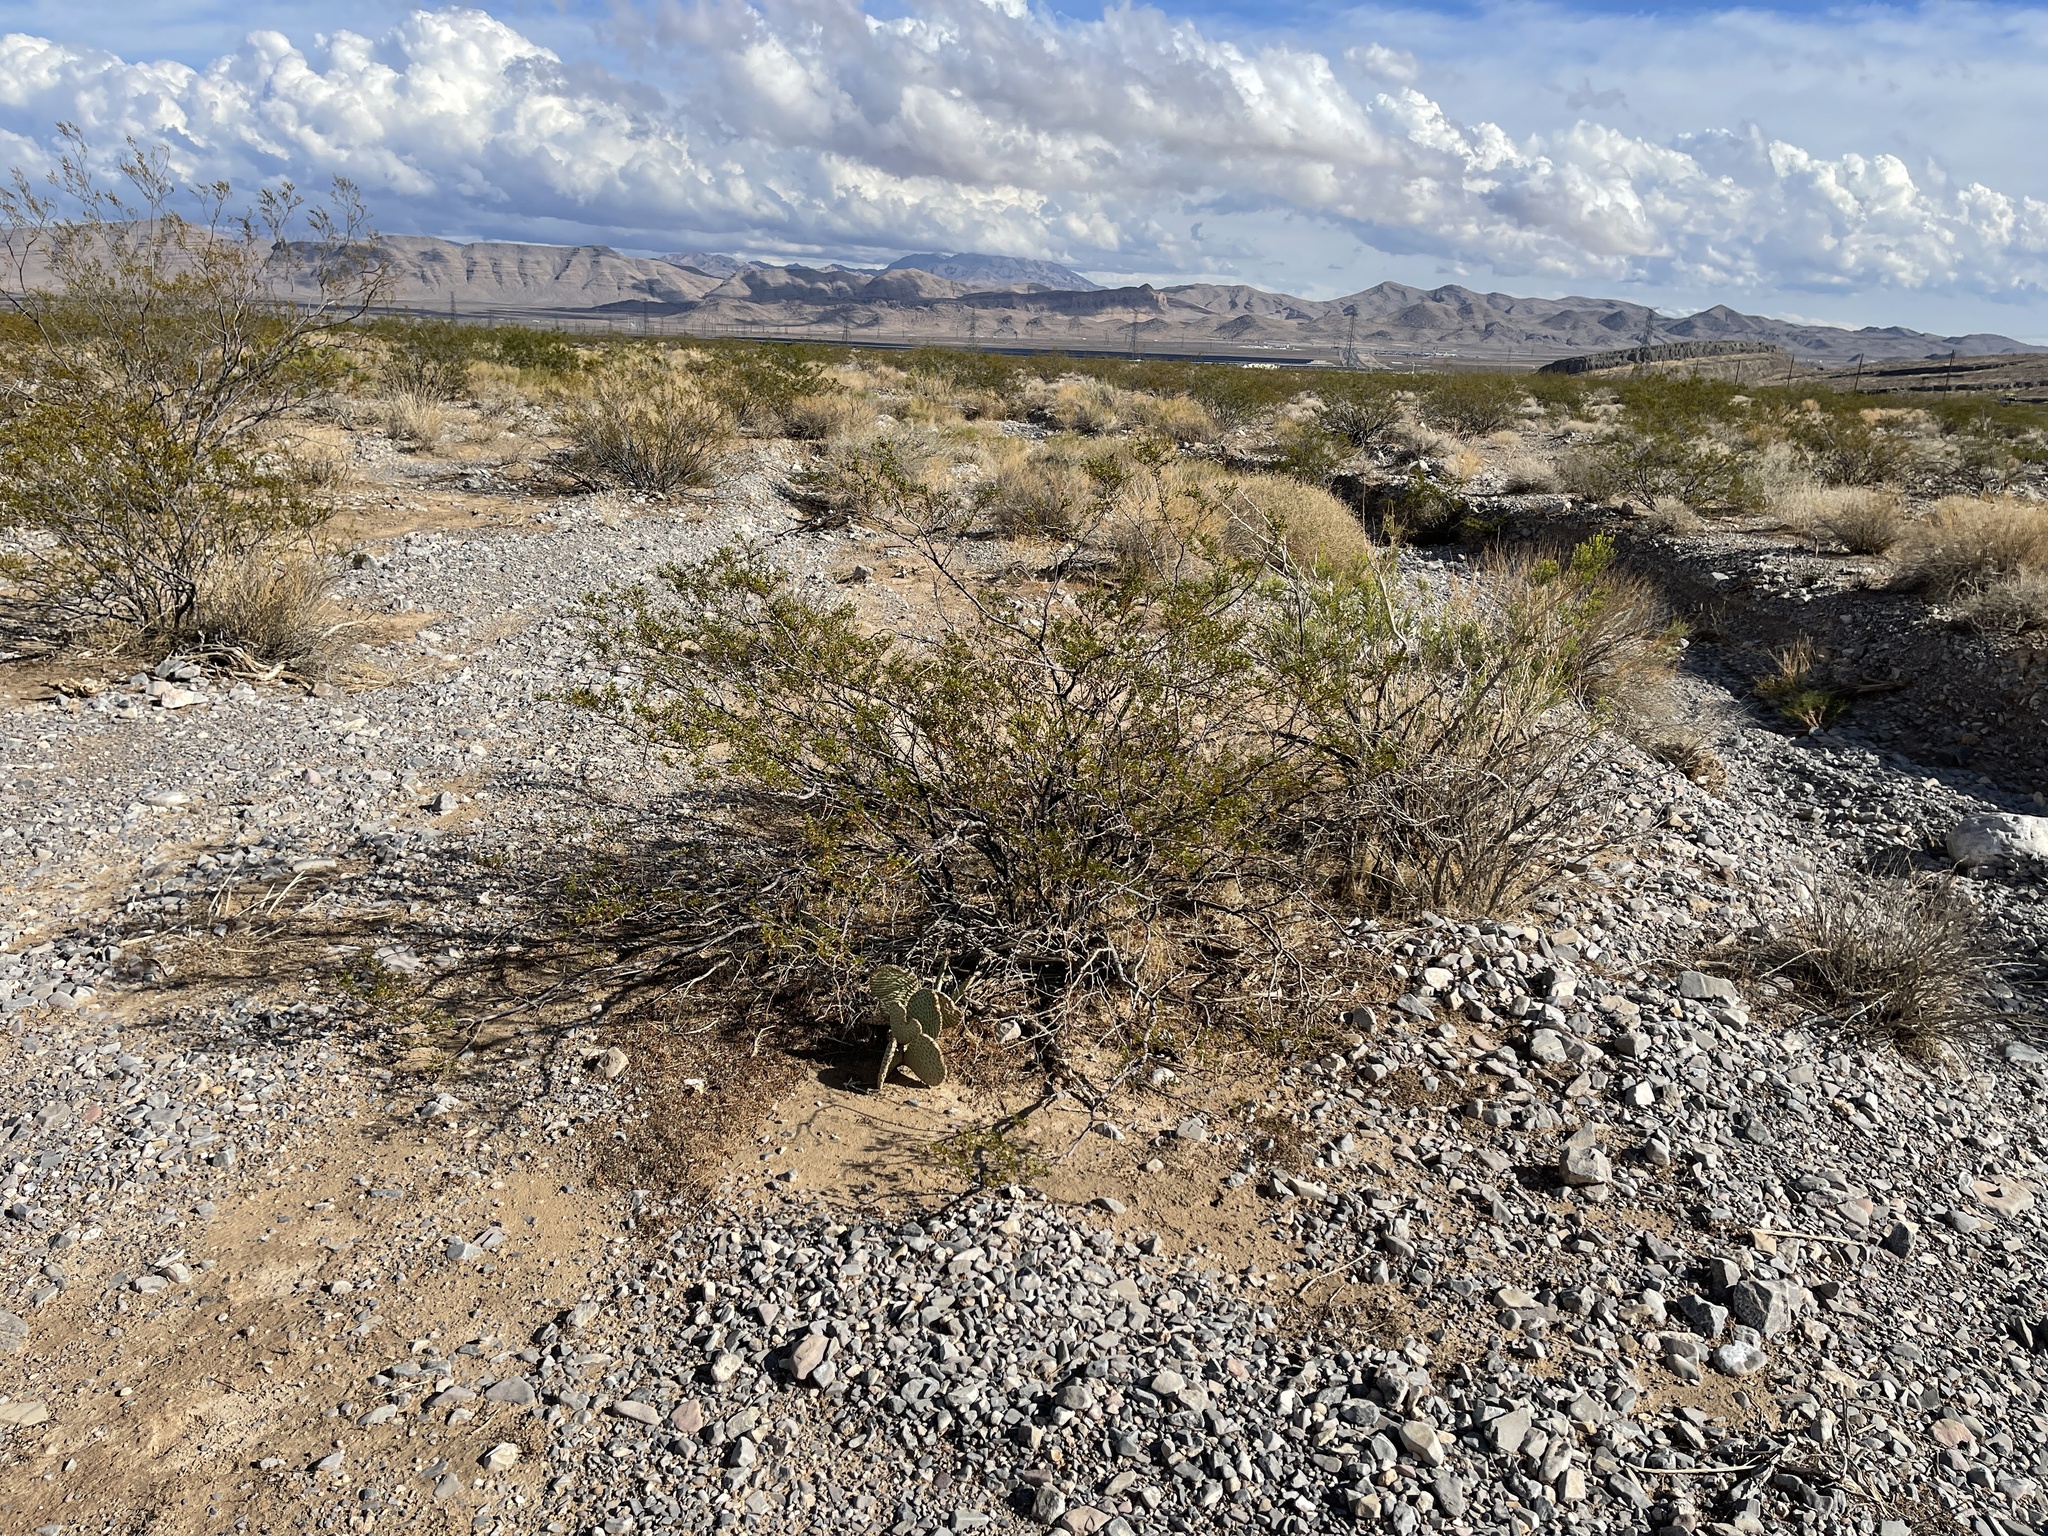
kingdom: Plantae
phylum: Tracheophyta
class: Magnoliopsida
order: Zygophyllales
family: Zygophyllaceae
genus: Larrea
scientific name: Larrea tridentata
